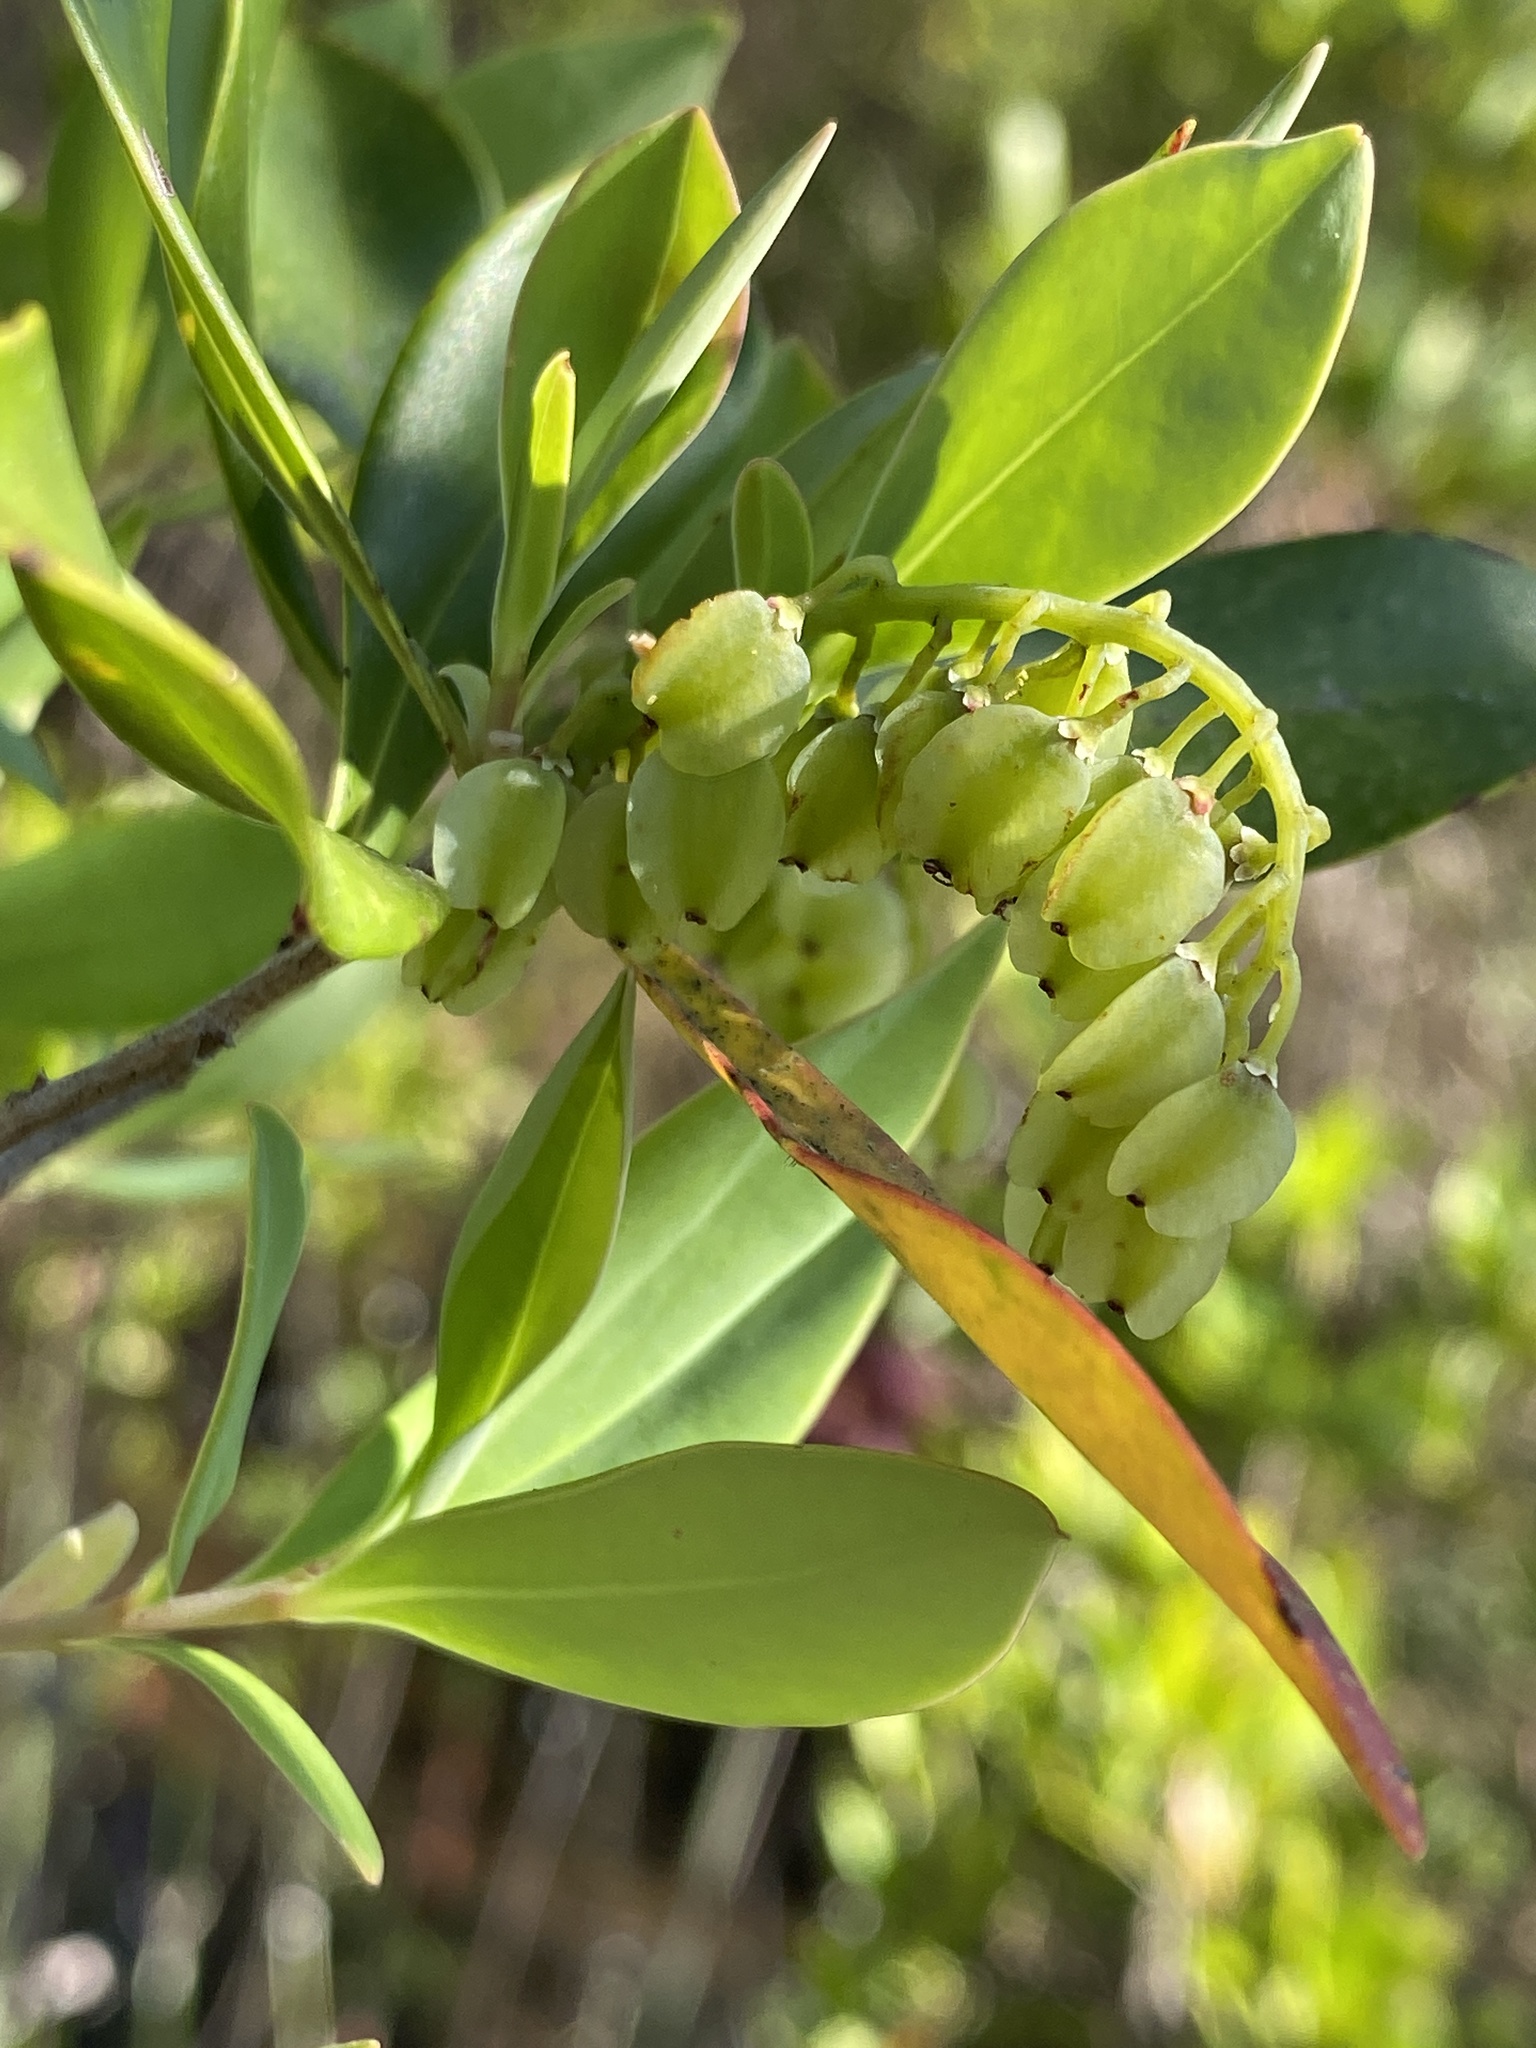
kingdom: Plantae
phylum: Tracheophyta
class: Magnoliopsida
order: Ericales
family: Cyrillaceae
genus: Cliftonia
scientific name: Cliftonia monophylla
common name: Titi
